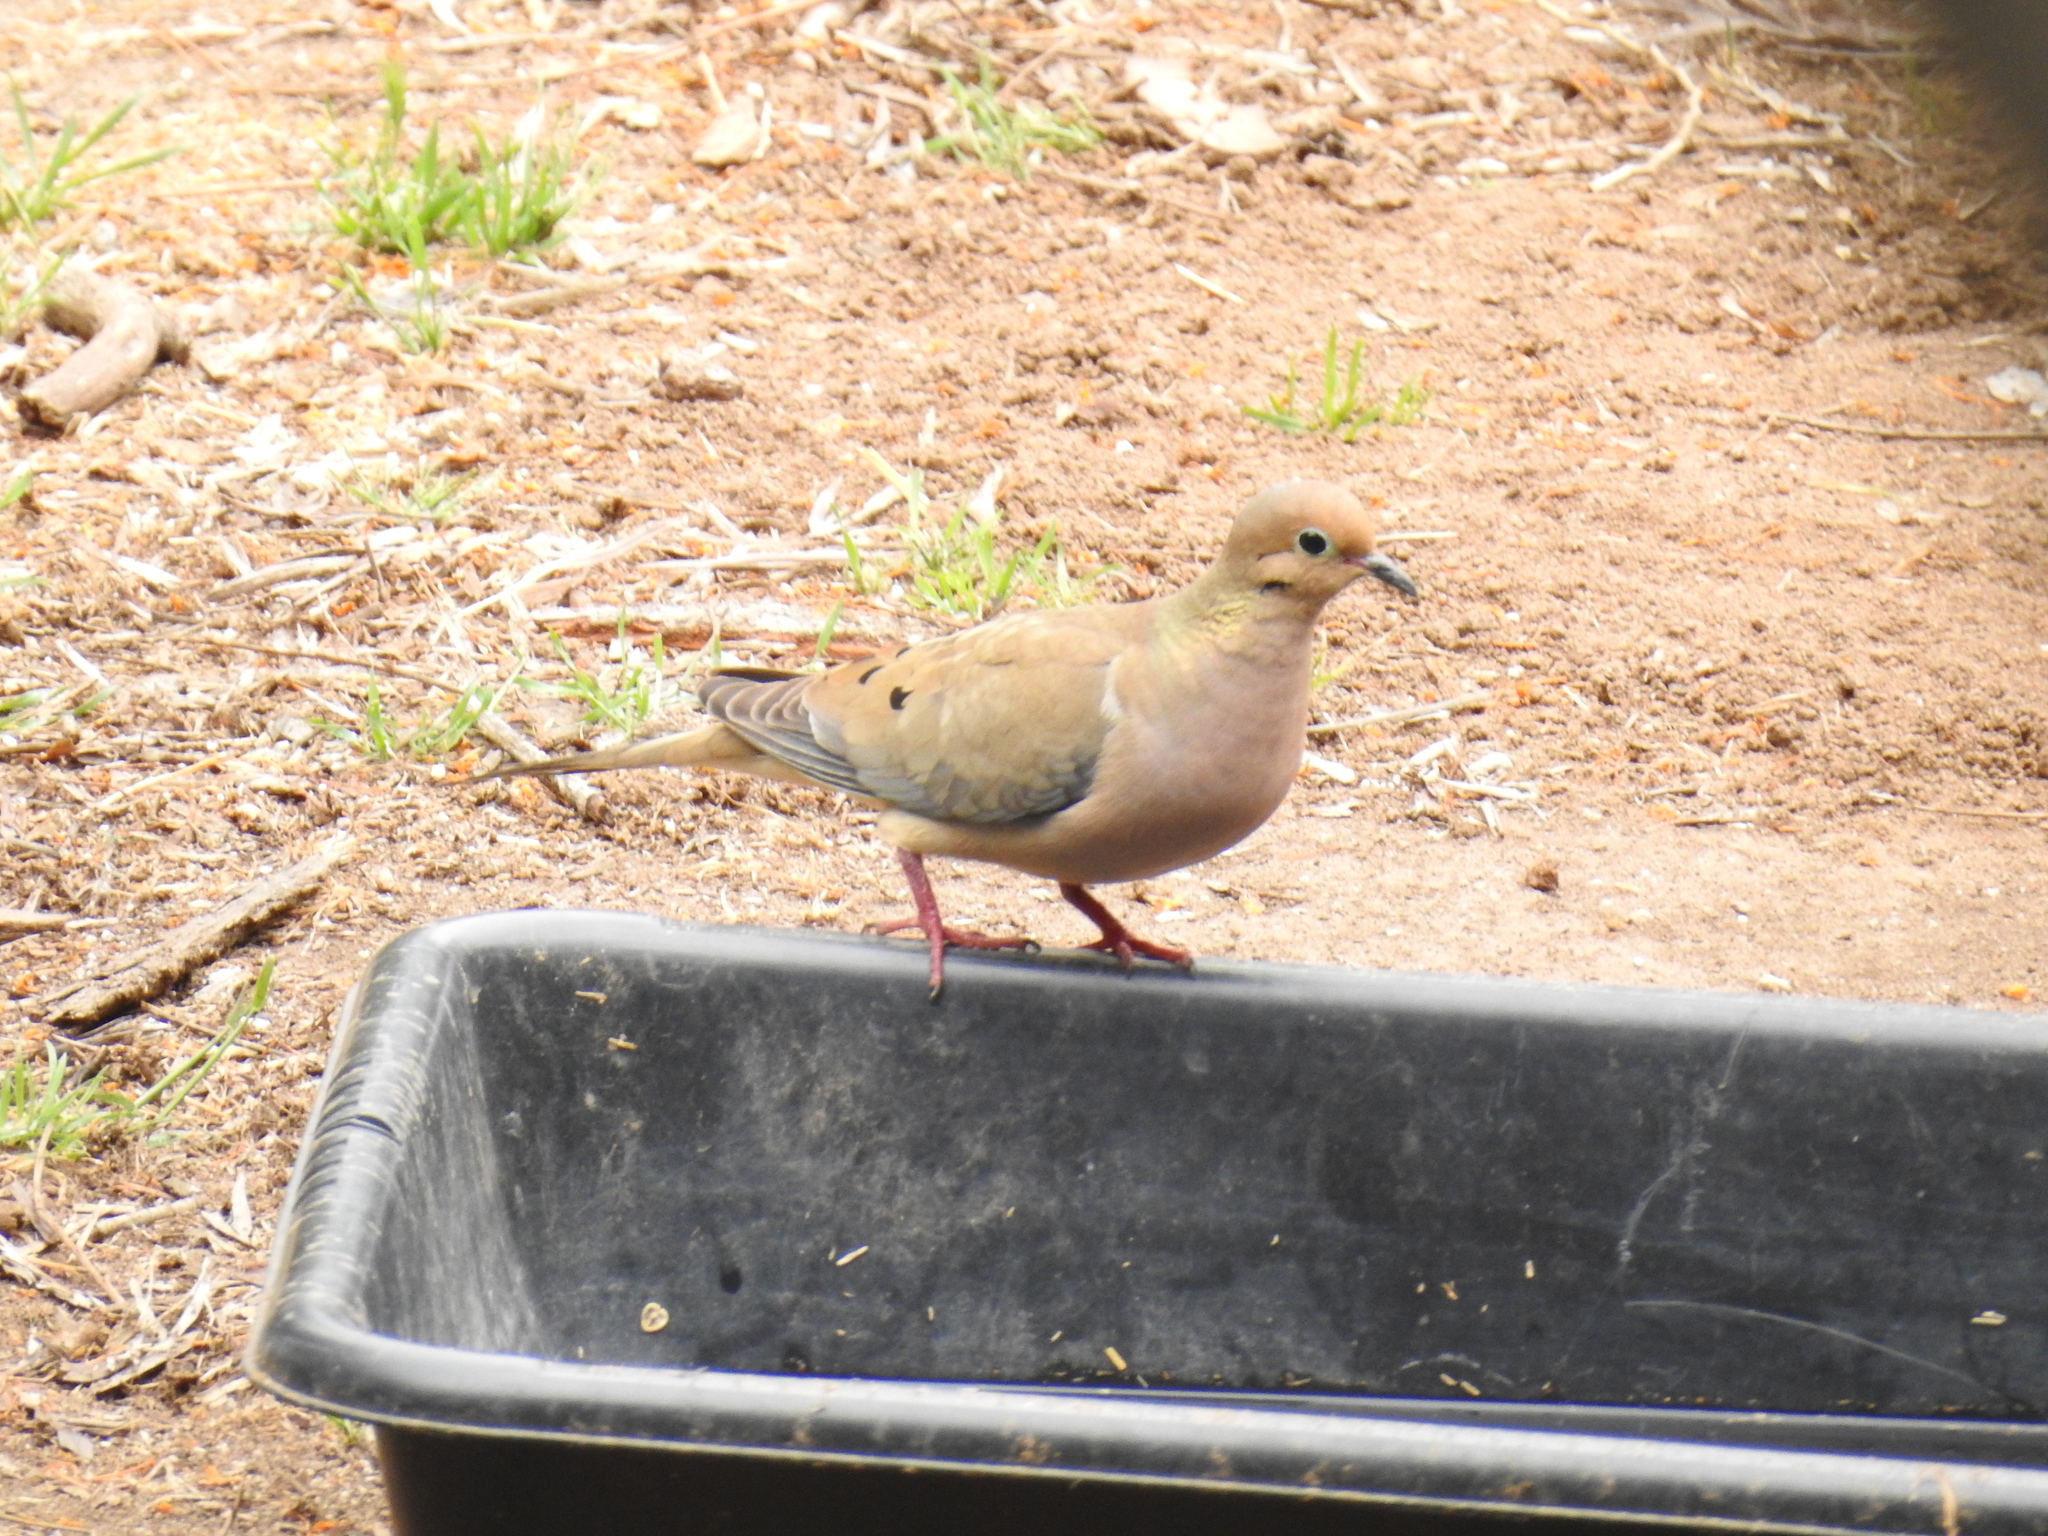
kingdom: Animalia
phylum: Chordata
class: Aves
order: Columbiformes
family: Columbidae
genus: Zenaida
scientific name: Zenaida macroura
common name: Mourning dove
